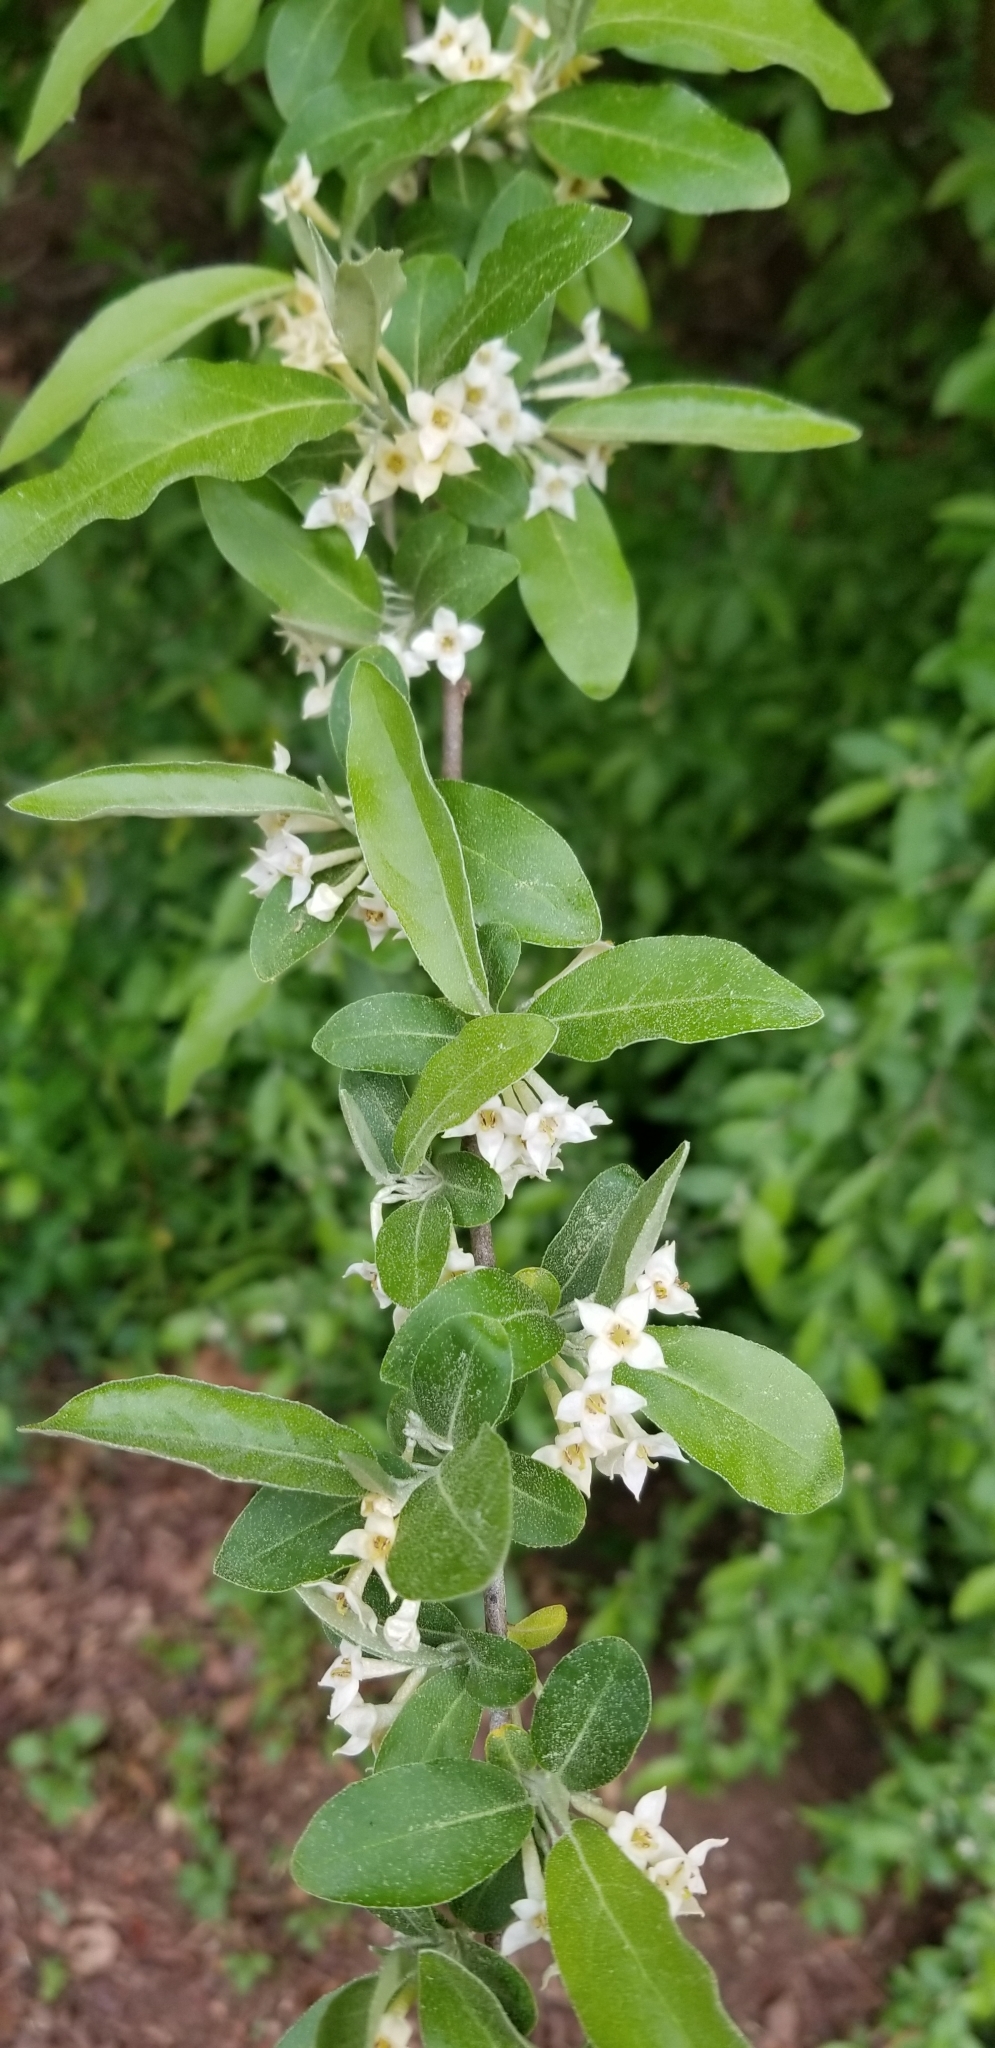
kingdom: Plantae
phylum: Tracheophyta
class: Magnoliopsida
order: Rosales
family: Elaeagnaceae
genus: Elaeagnus
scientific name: Elaeagnus umbellata
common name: Autumn olive
